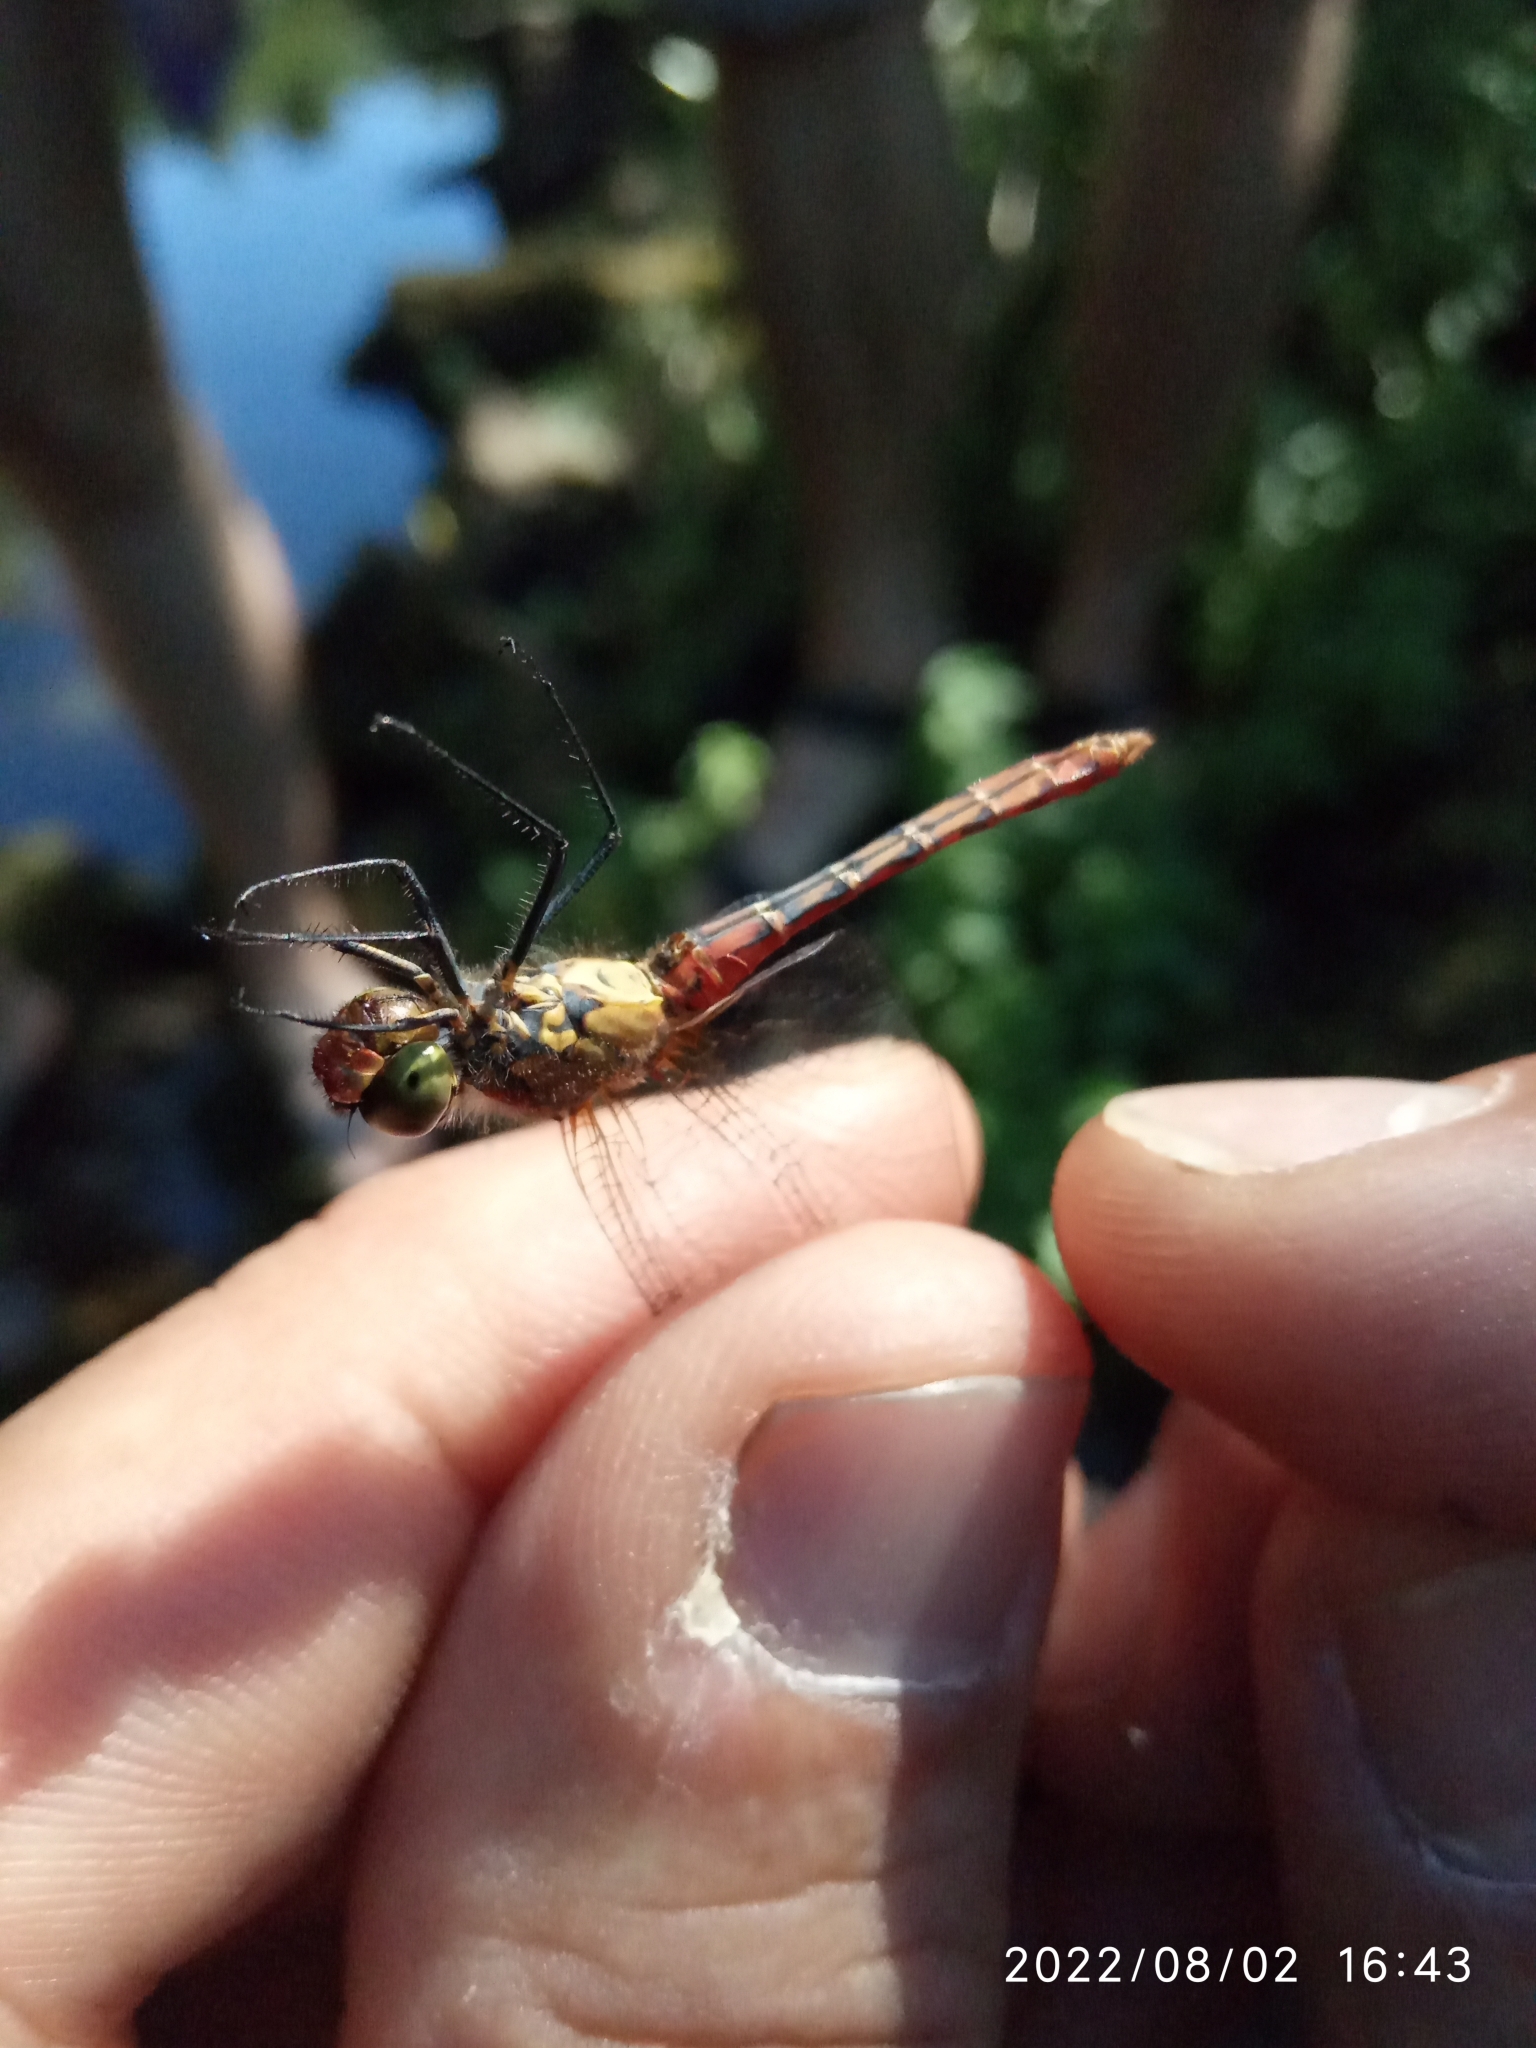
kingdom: Animalia
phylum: Arthropoda
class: Insecta
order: Odonata
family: Libellulidae
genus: Sympetrum
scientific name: Sympetrum sanguineum
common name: Ruddy darter
